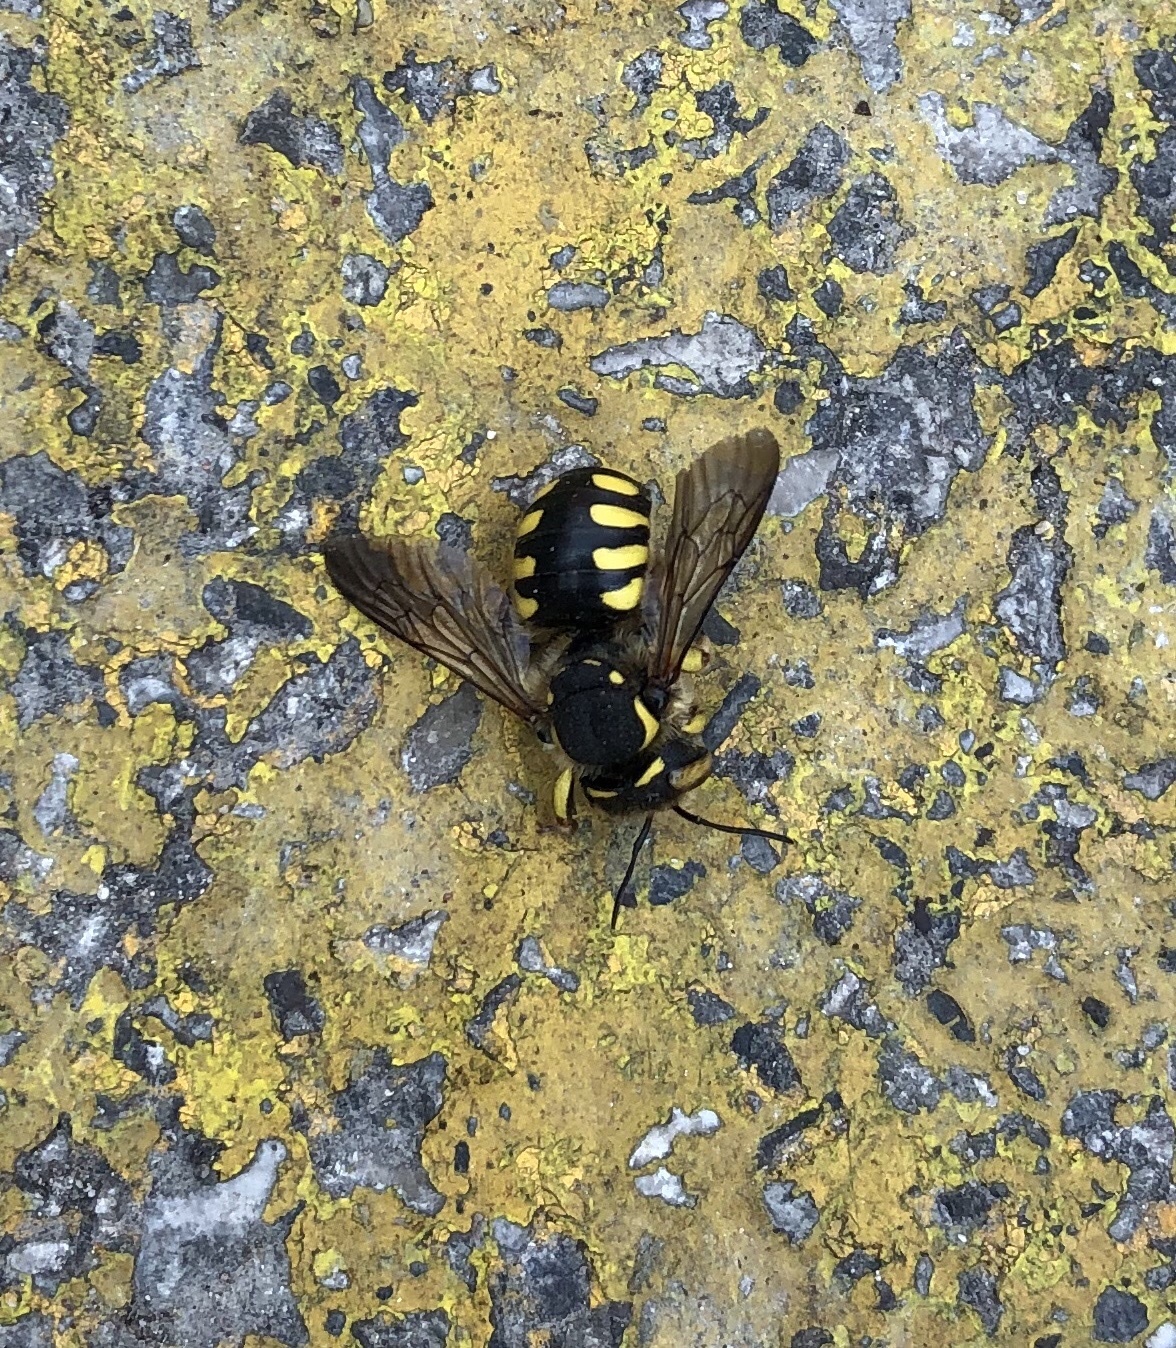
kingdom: Animalia
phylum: Arthropoda
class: Insecta
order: Hymenoptera
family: Megachilidae
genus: Anthidium
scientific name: Anthidium florentinum
